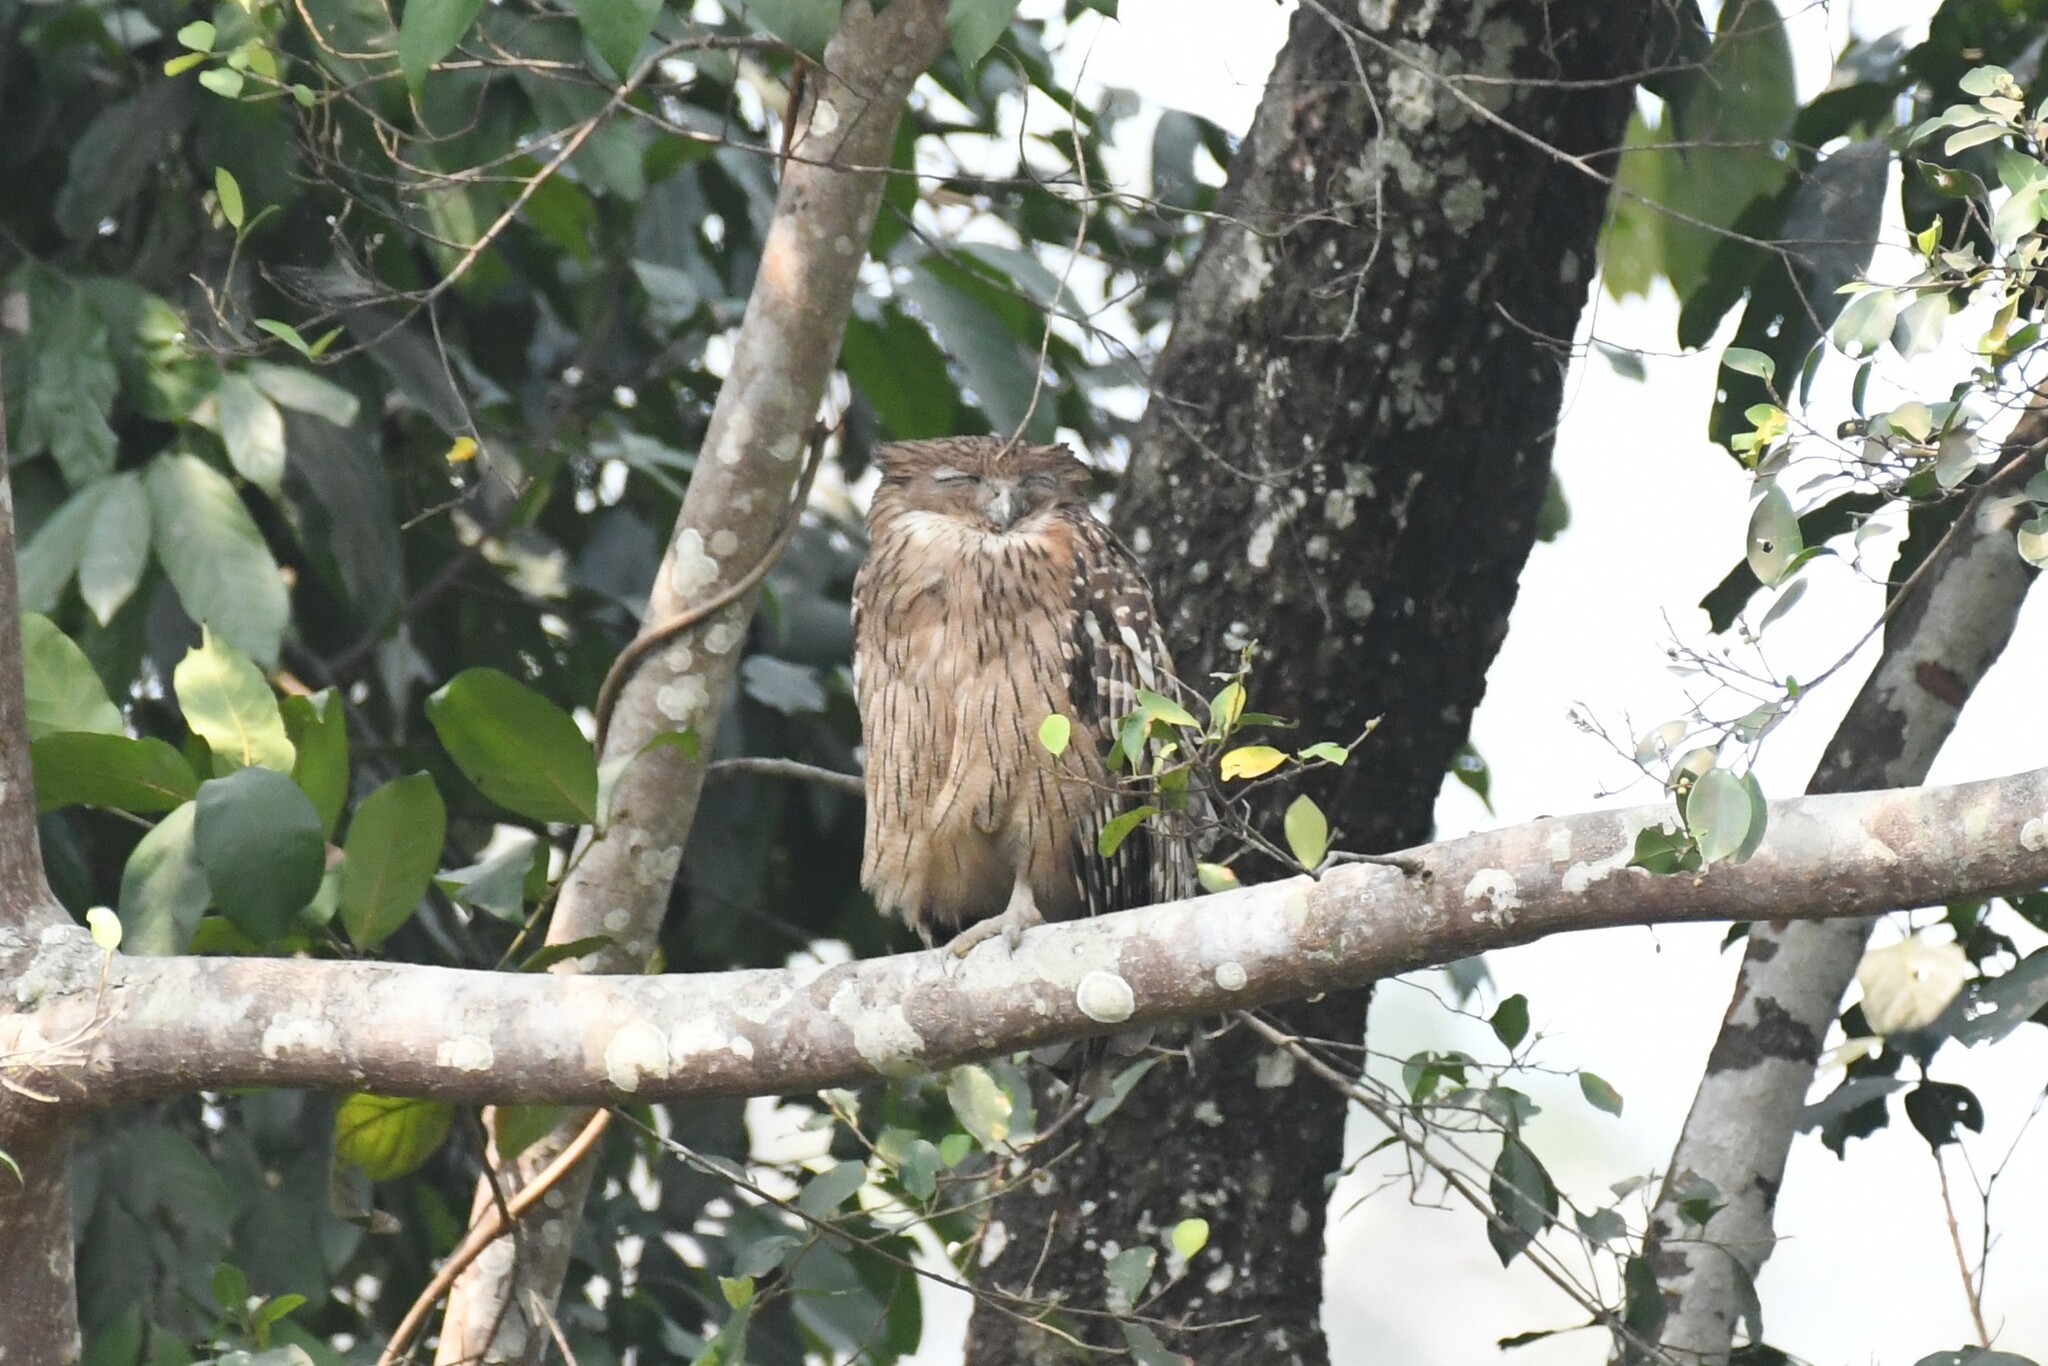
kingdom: Animalia
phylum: Chordata
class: Aves
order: Strigiformes
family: Strigidae
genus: Ketupa
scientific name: Ketupa zeylonensis
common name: Brown fish owl
